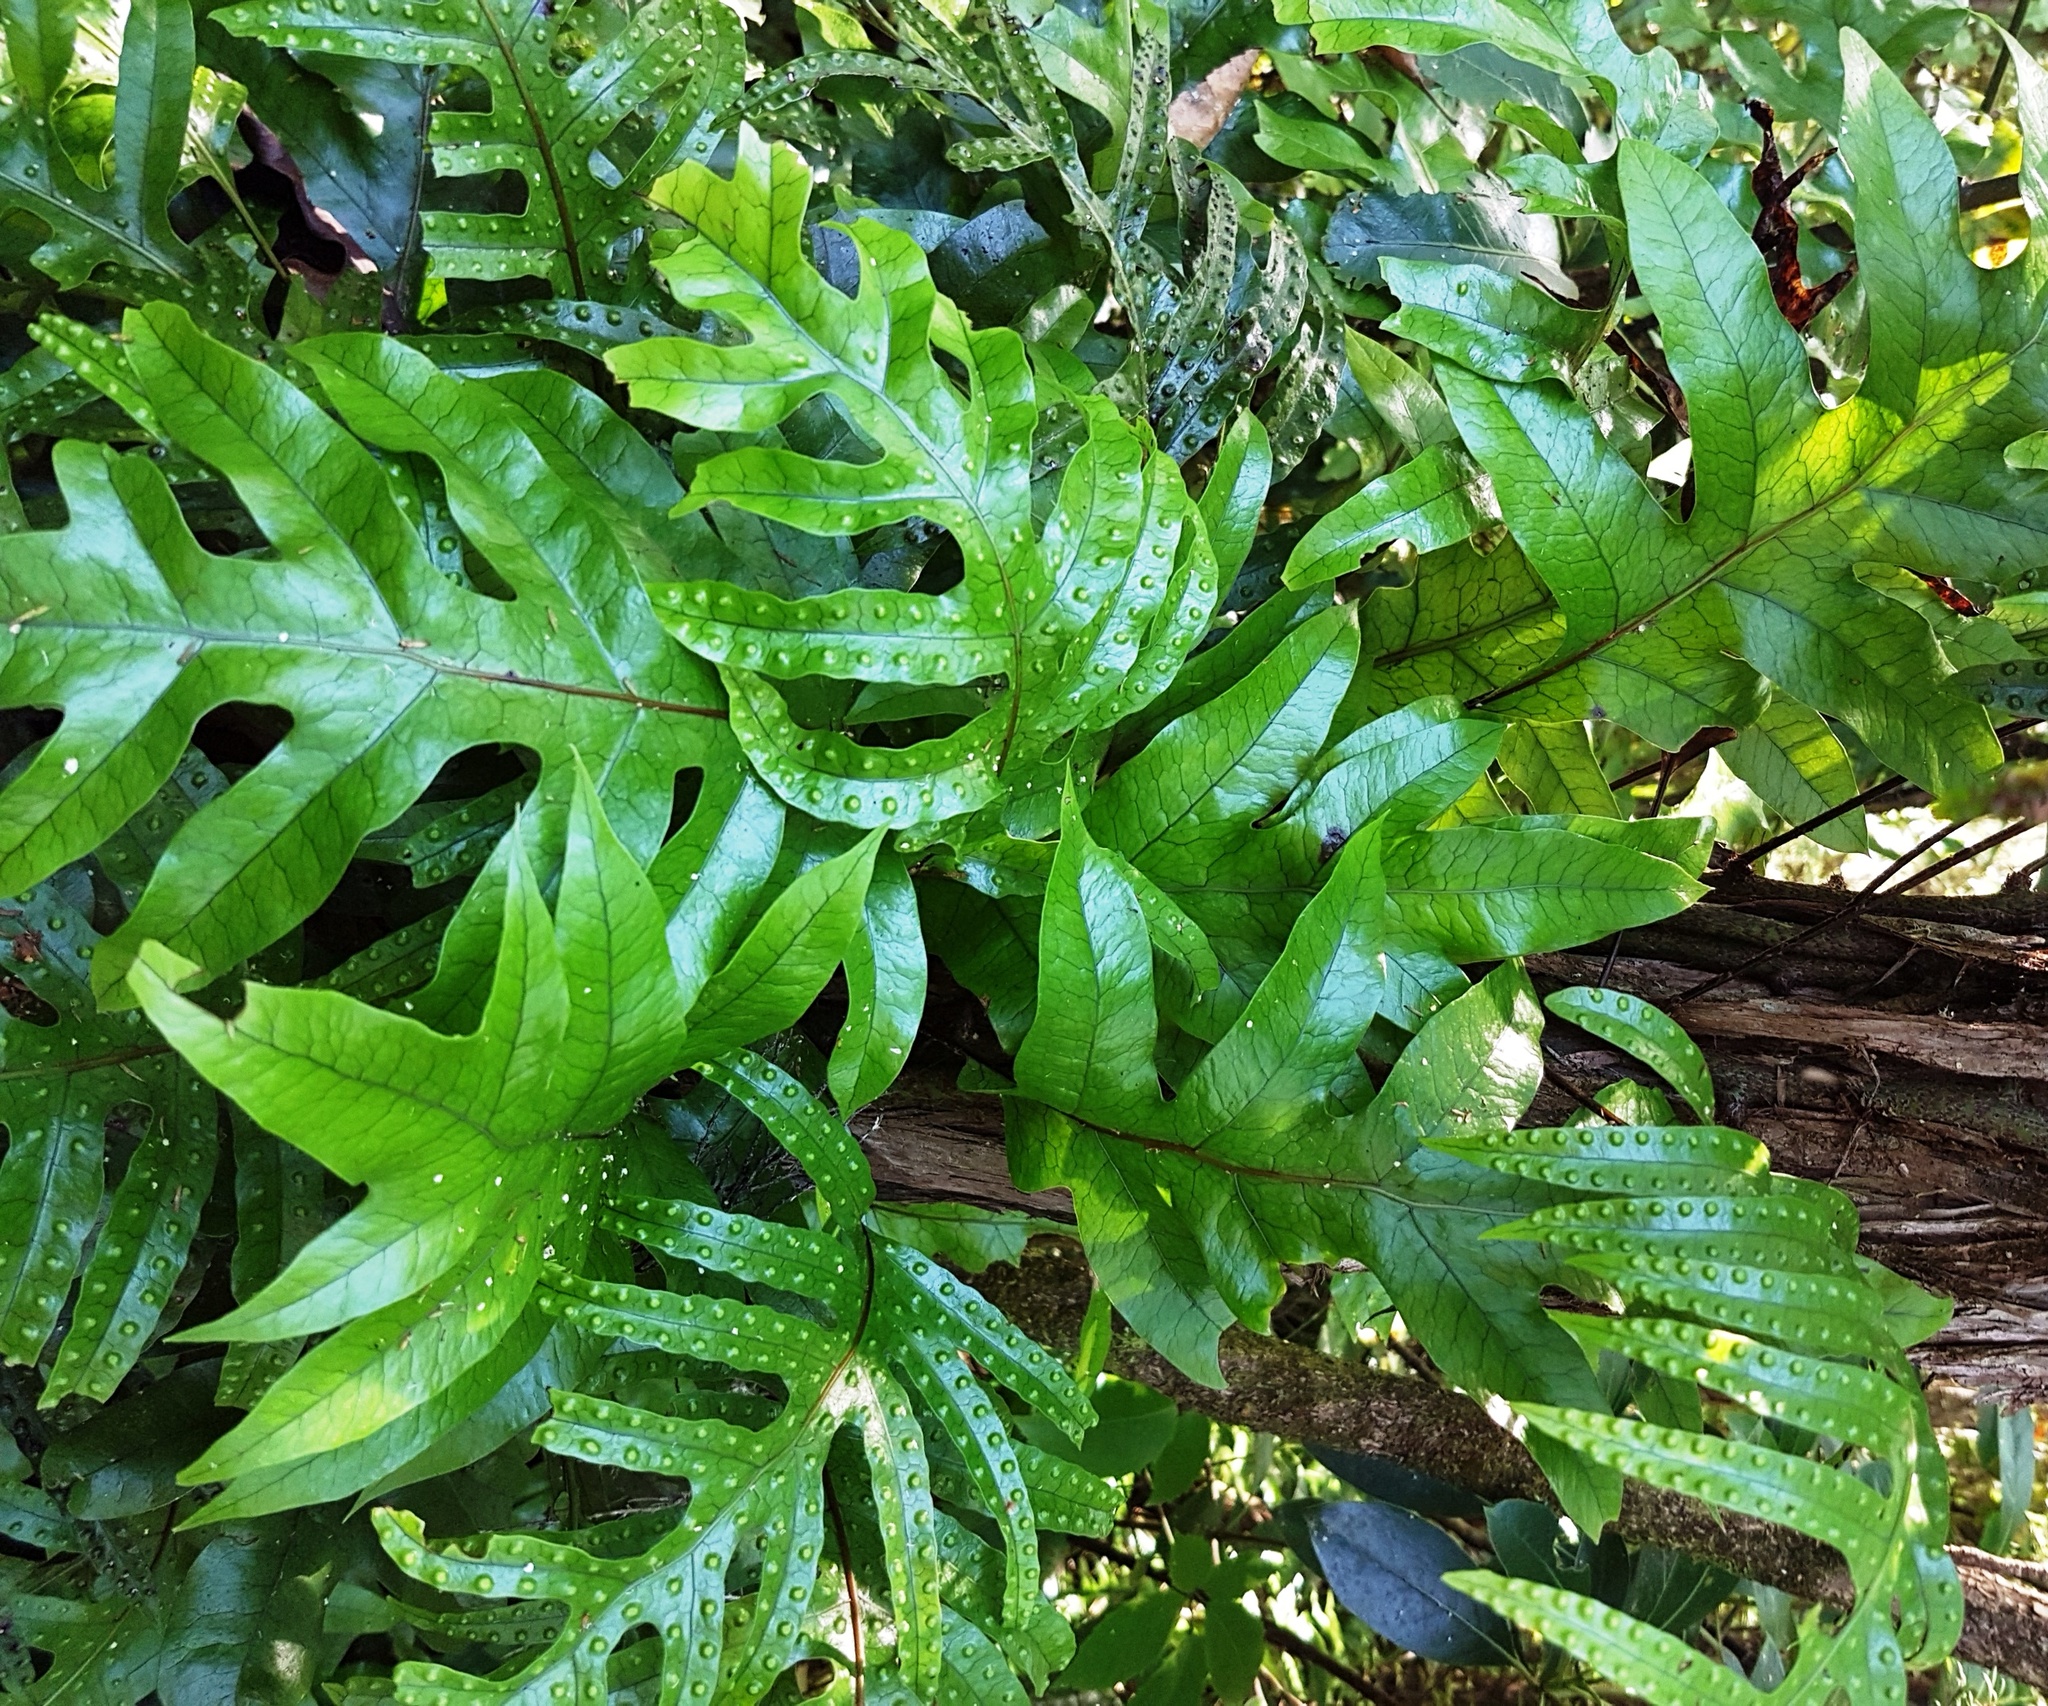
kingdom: Plantae
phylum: Tracheophyta
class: Polypodiopsida
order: Polypodiales
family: Polypodiaceae
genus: Lecanopteris
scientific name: Lecanopteris pustulata
